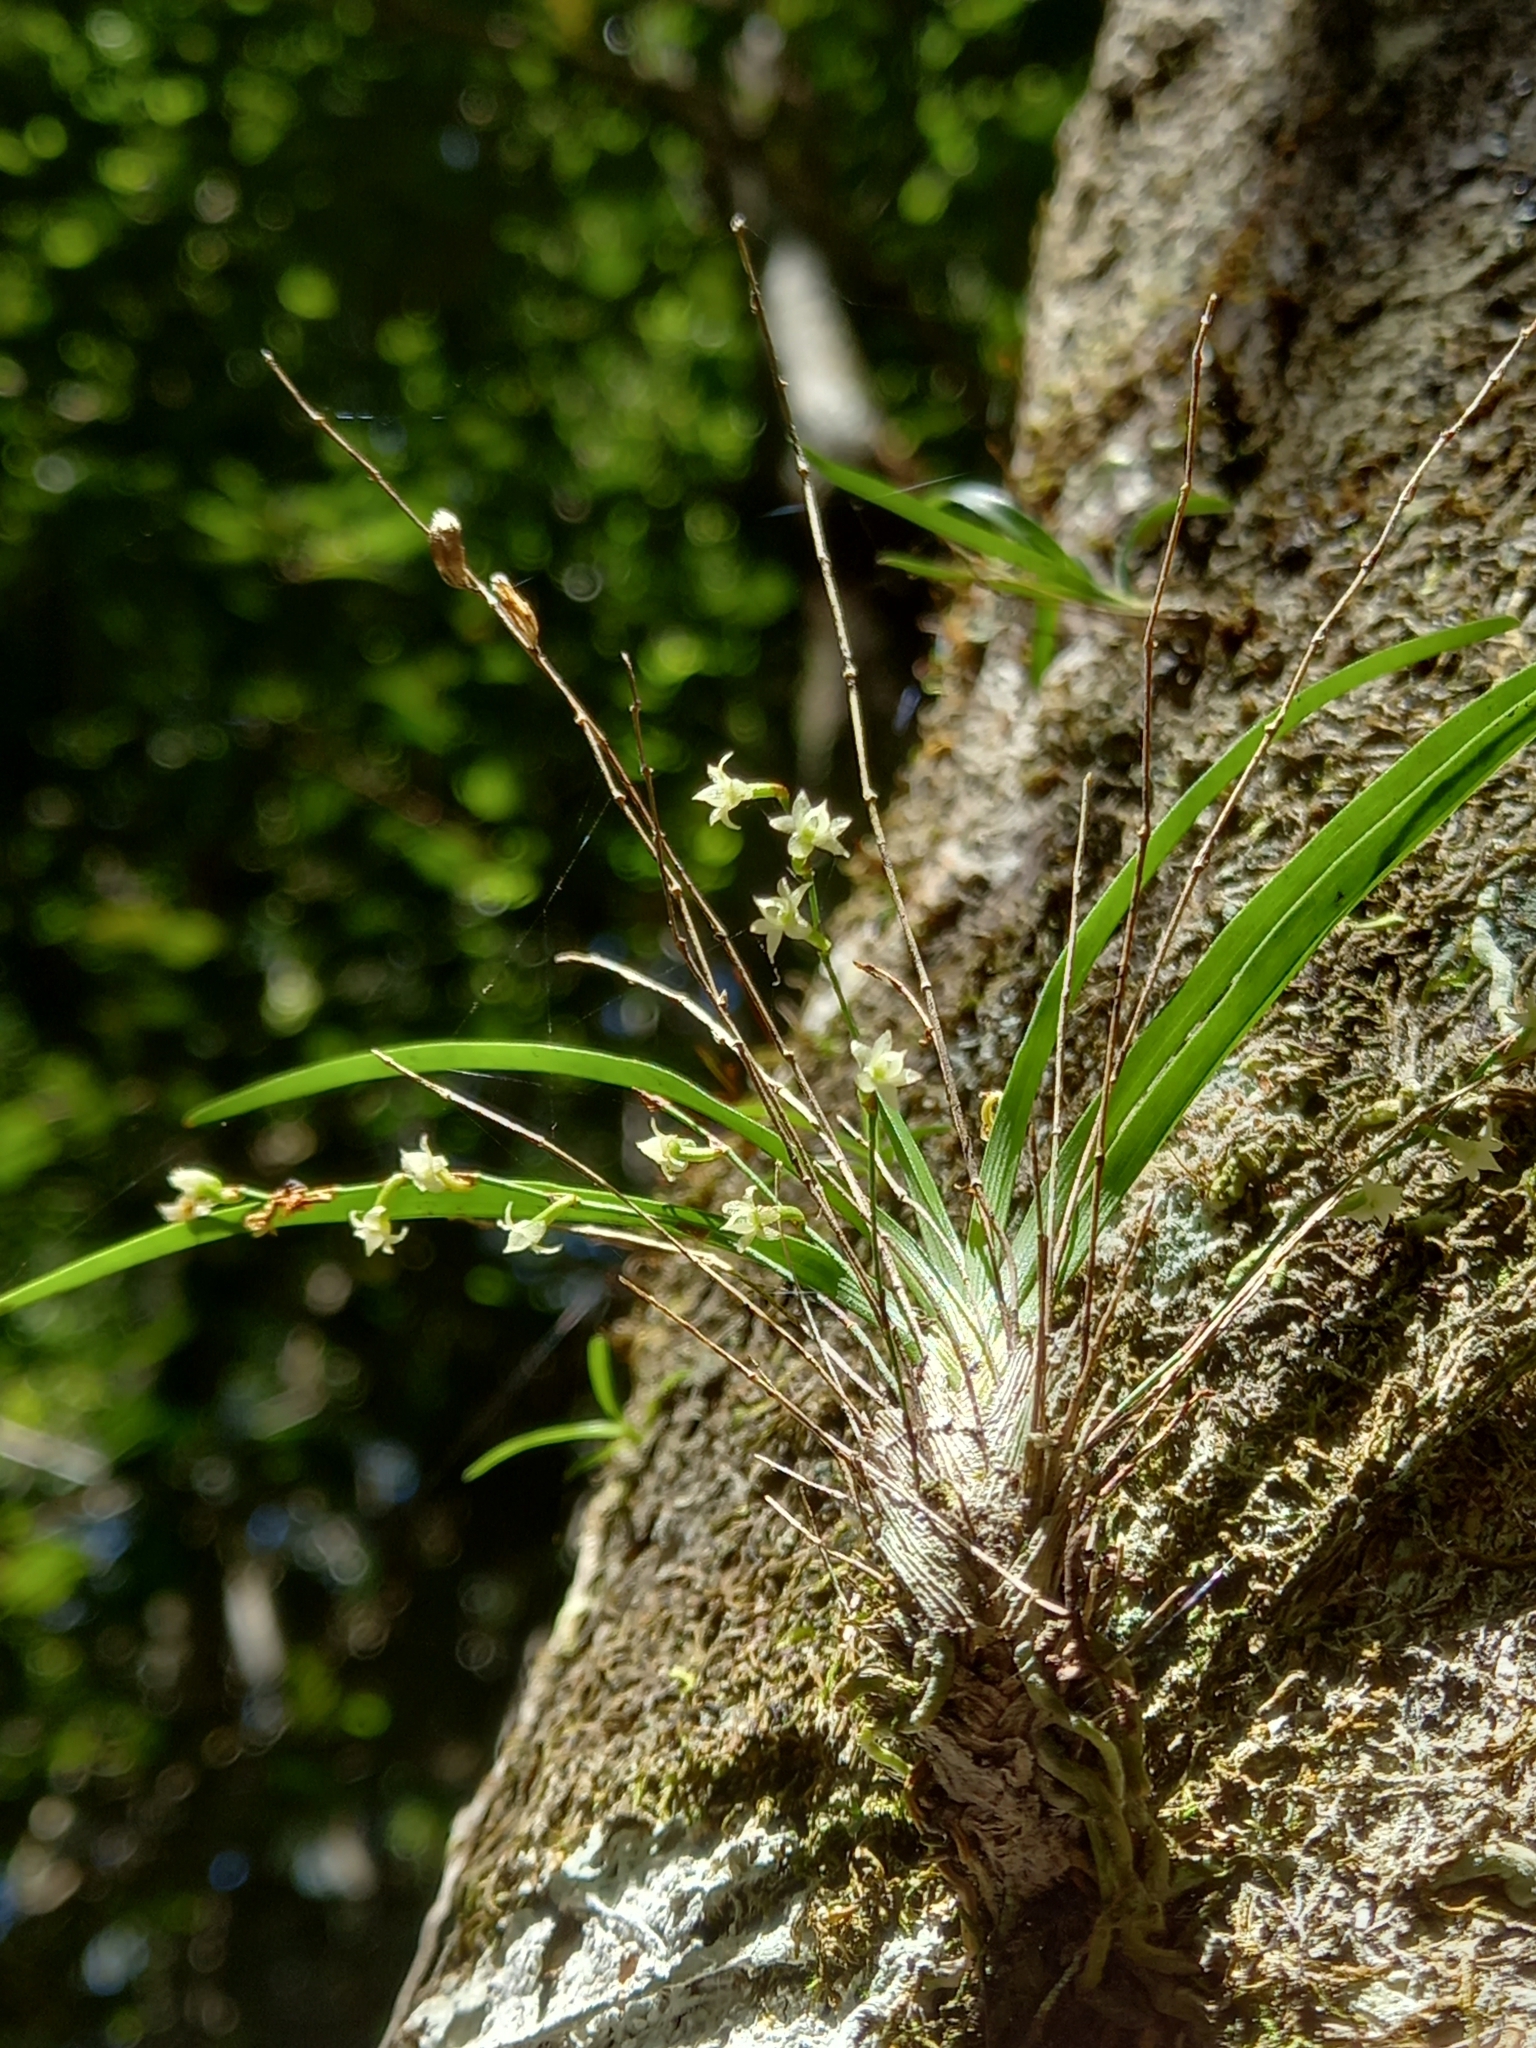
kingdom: Plantae
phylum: Tracheophyta
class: Liliopsida
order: Asparagales
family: Orchidaceae
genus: Angraecum
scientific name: Angraecum pusillum
